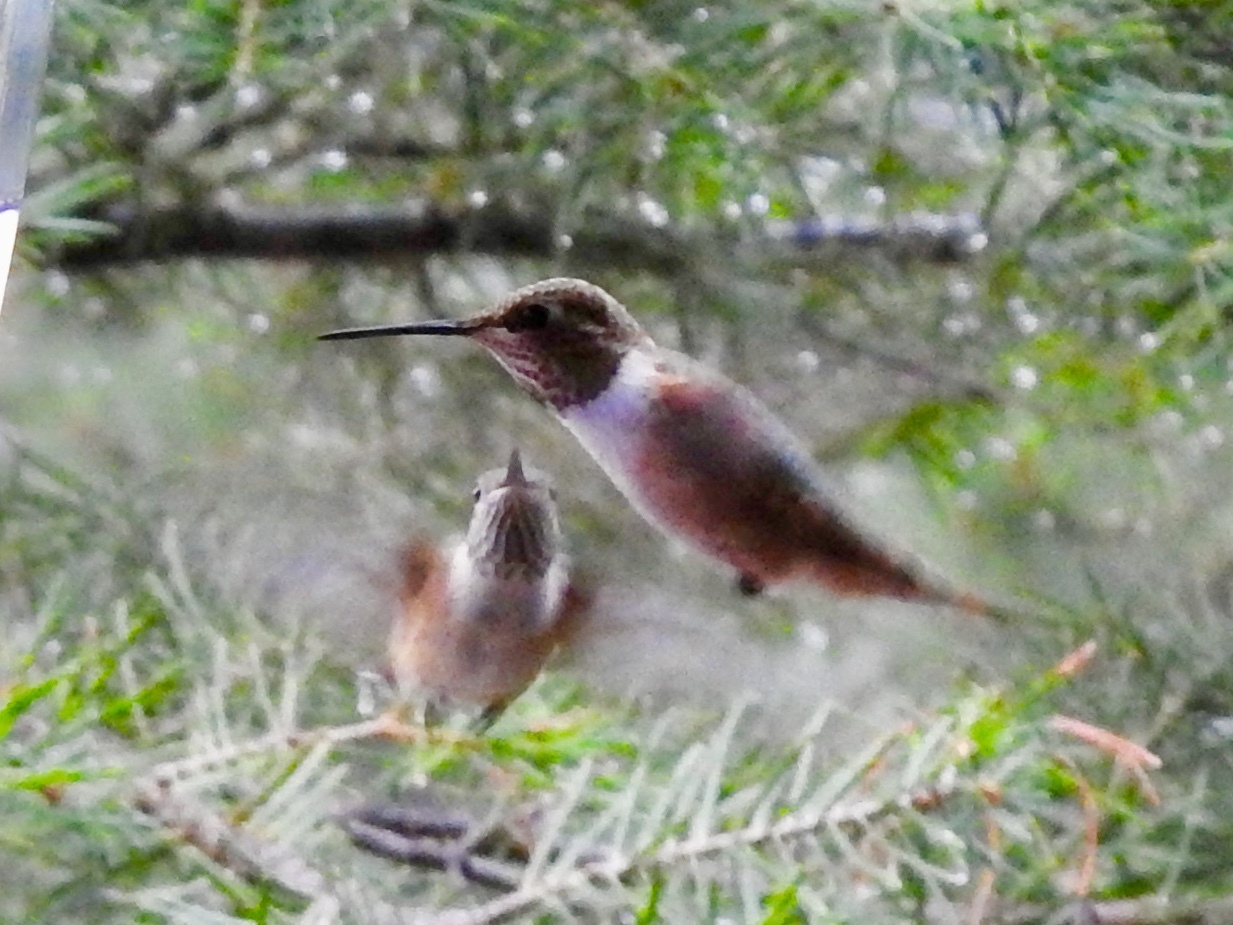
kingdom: Animalia
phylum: Chordata
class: Aves
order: Apodiformes
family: Trochilidae
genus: Selasphorus
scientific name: Selasphorus rufus
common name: Rufous hummingbird
